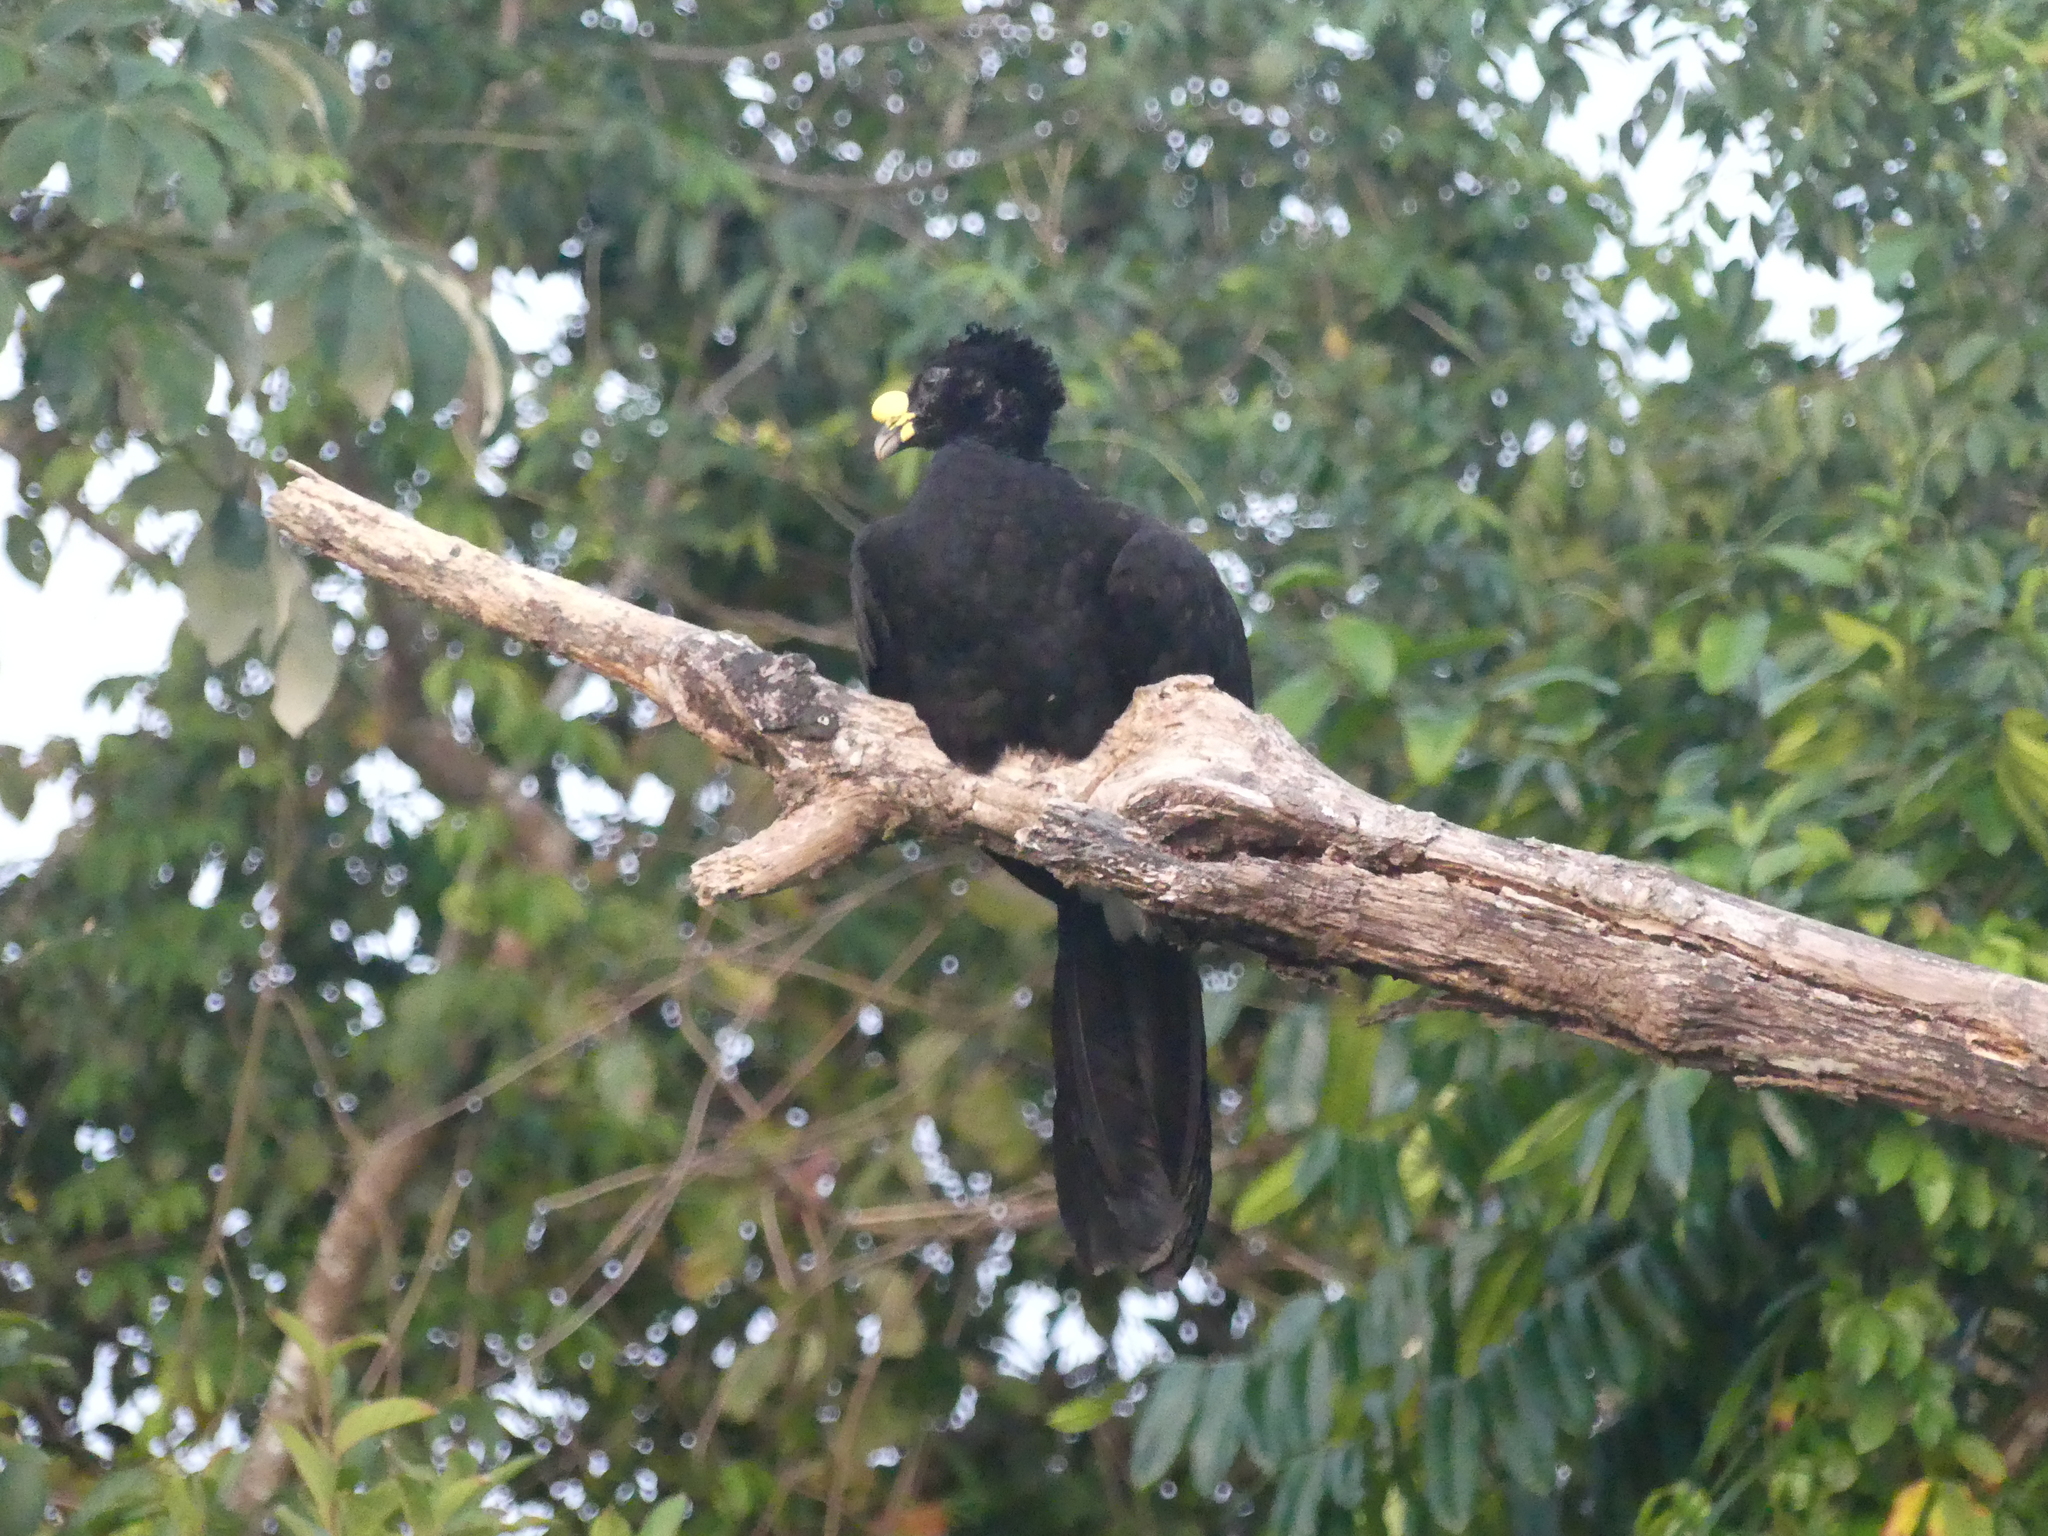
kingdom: Animalia
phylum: Chordata
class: Aves
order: Galliformes
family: Cracidae
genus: Crax
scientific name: Crax rubra
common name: Great curassow
